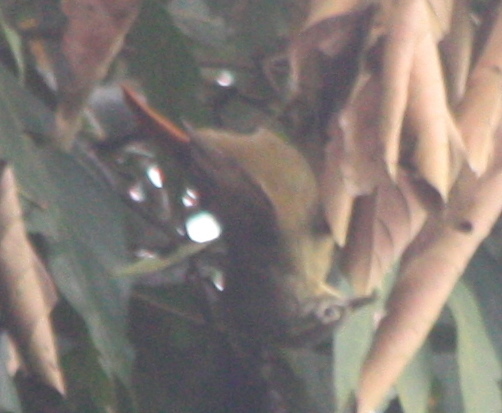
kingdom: Animalia
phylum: Chordata
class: Aves
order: Passeriformes
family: Furnariidae
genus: Anabacerthia
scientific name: Anabacerthia striaticollis
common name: Montane foliage-gleaner
